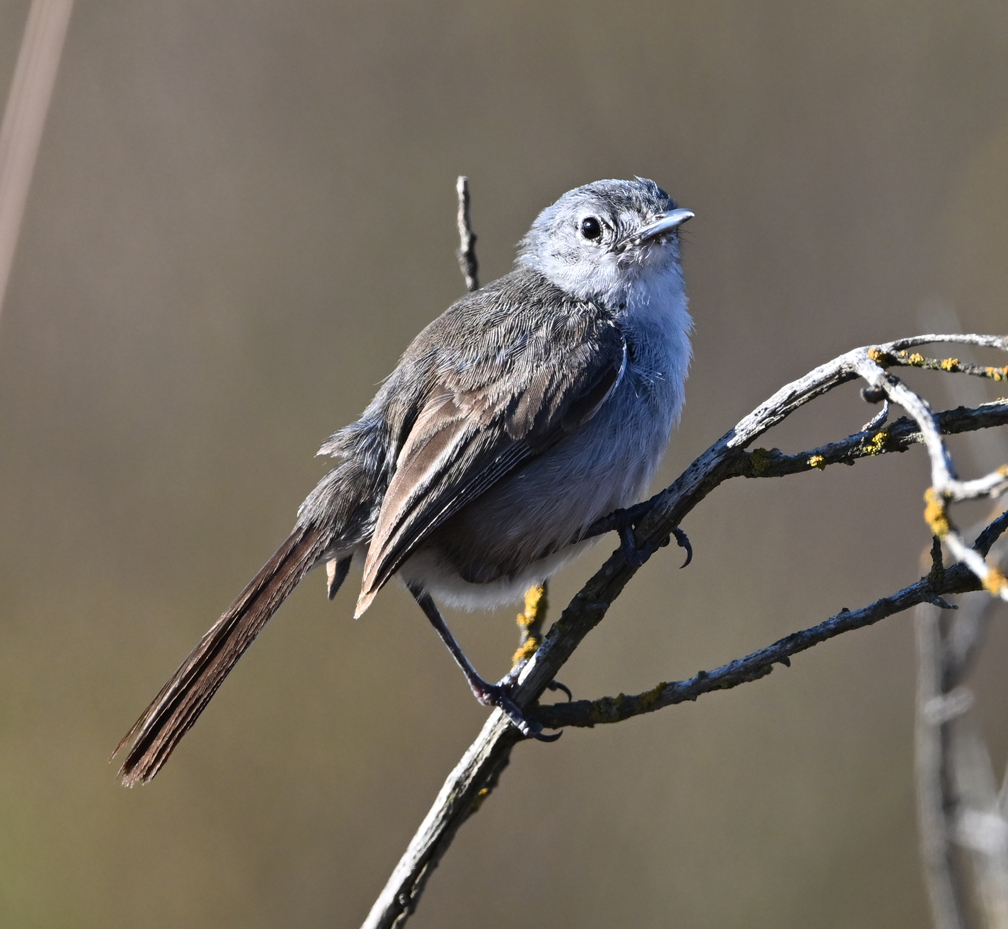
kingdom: Animalia
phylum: Chordata
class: Aves
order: Passeriformes
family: Polioptilidae
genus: Polioptila
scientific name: Polioptila californica
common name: California gnatcatcher
